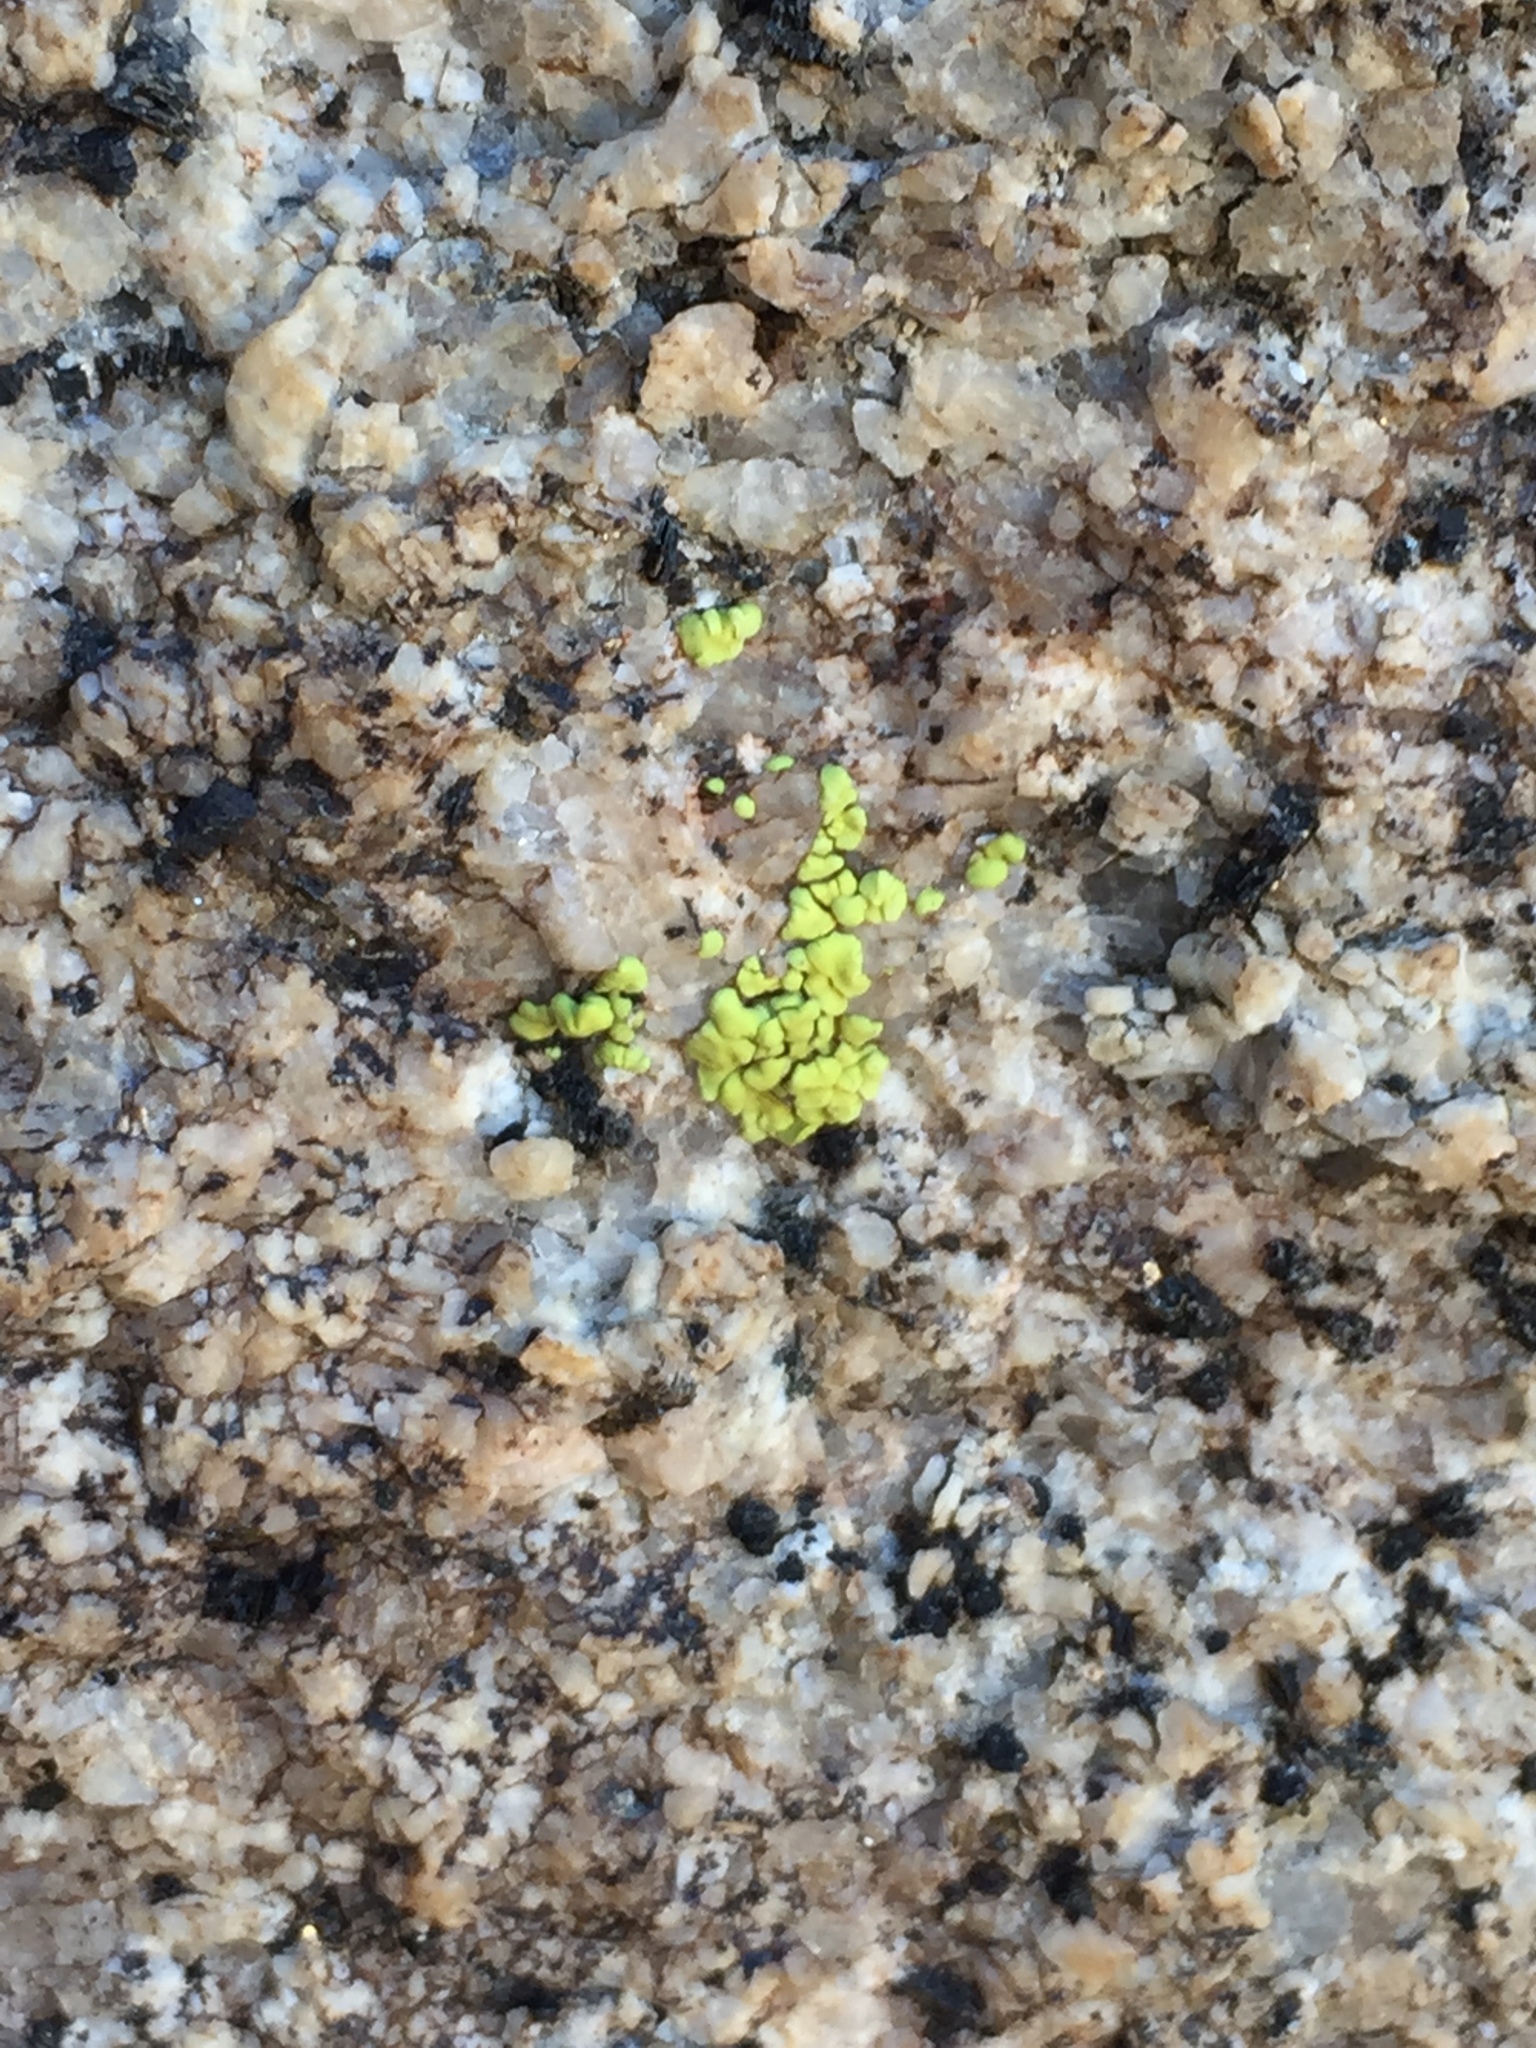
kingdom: Fungi
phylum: Ascomycota
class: Lecanoromycetes
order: Acarosporales
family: Acarosporaceae
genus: Acarospora
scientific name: Acarospora socialis
